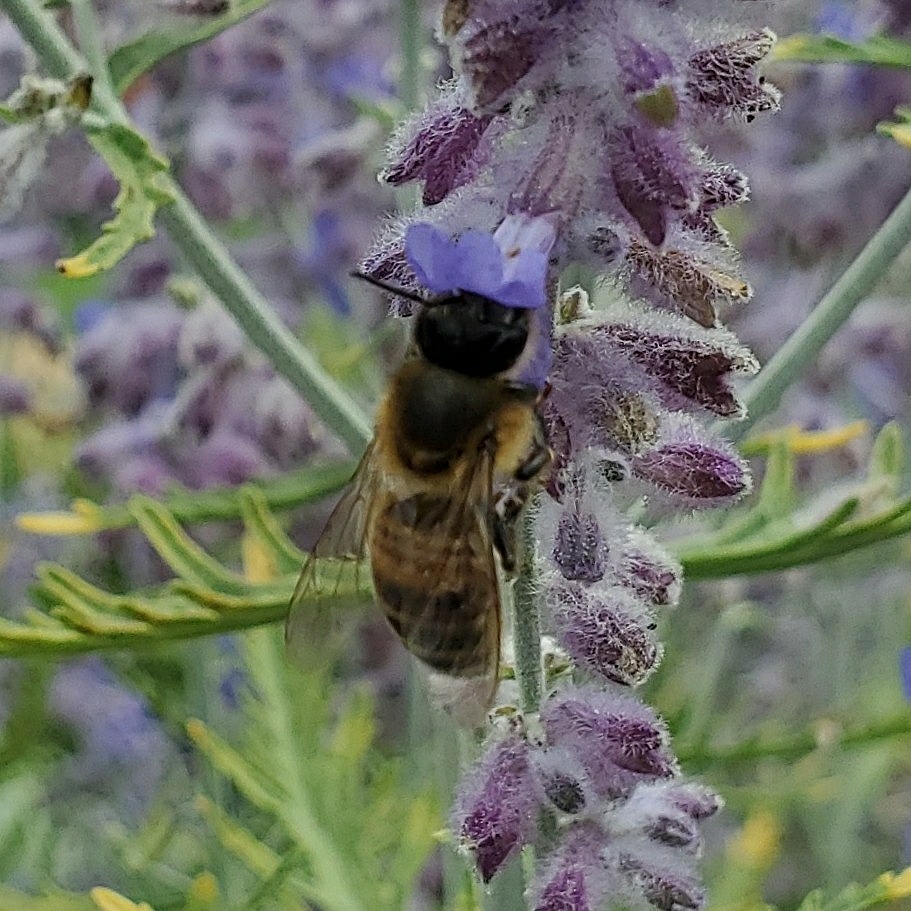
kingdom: Animalia
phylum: Arthropoda
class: Insecta
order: Hymenoptera
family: Apidae
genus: Apis
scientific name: Apis mellifera
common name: Honey bee
